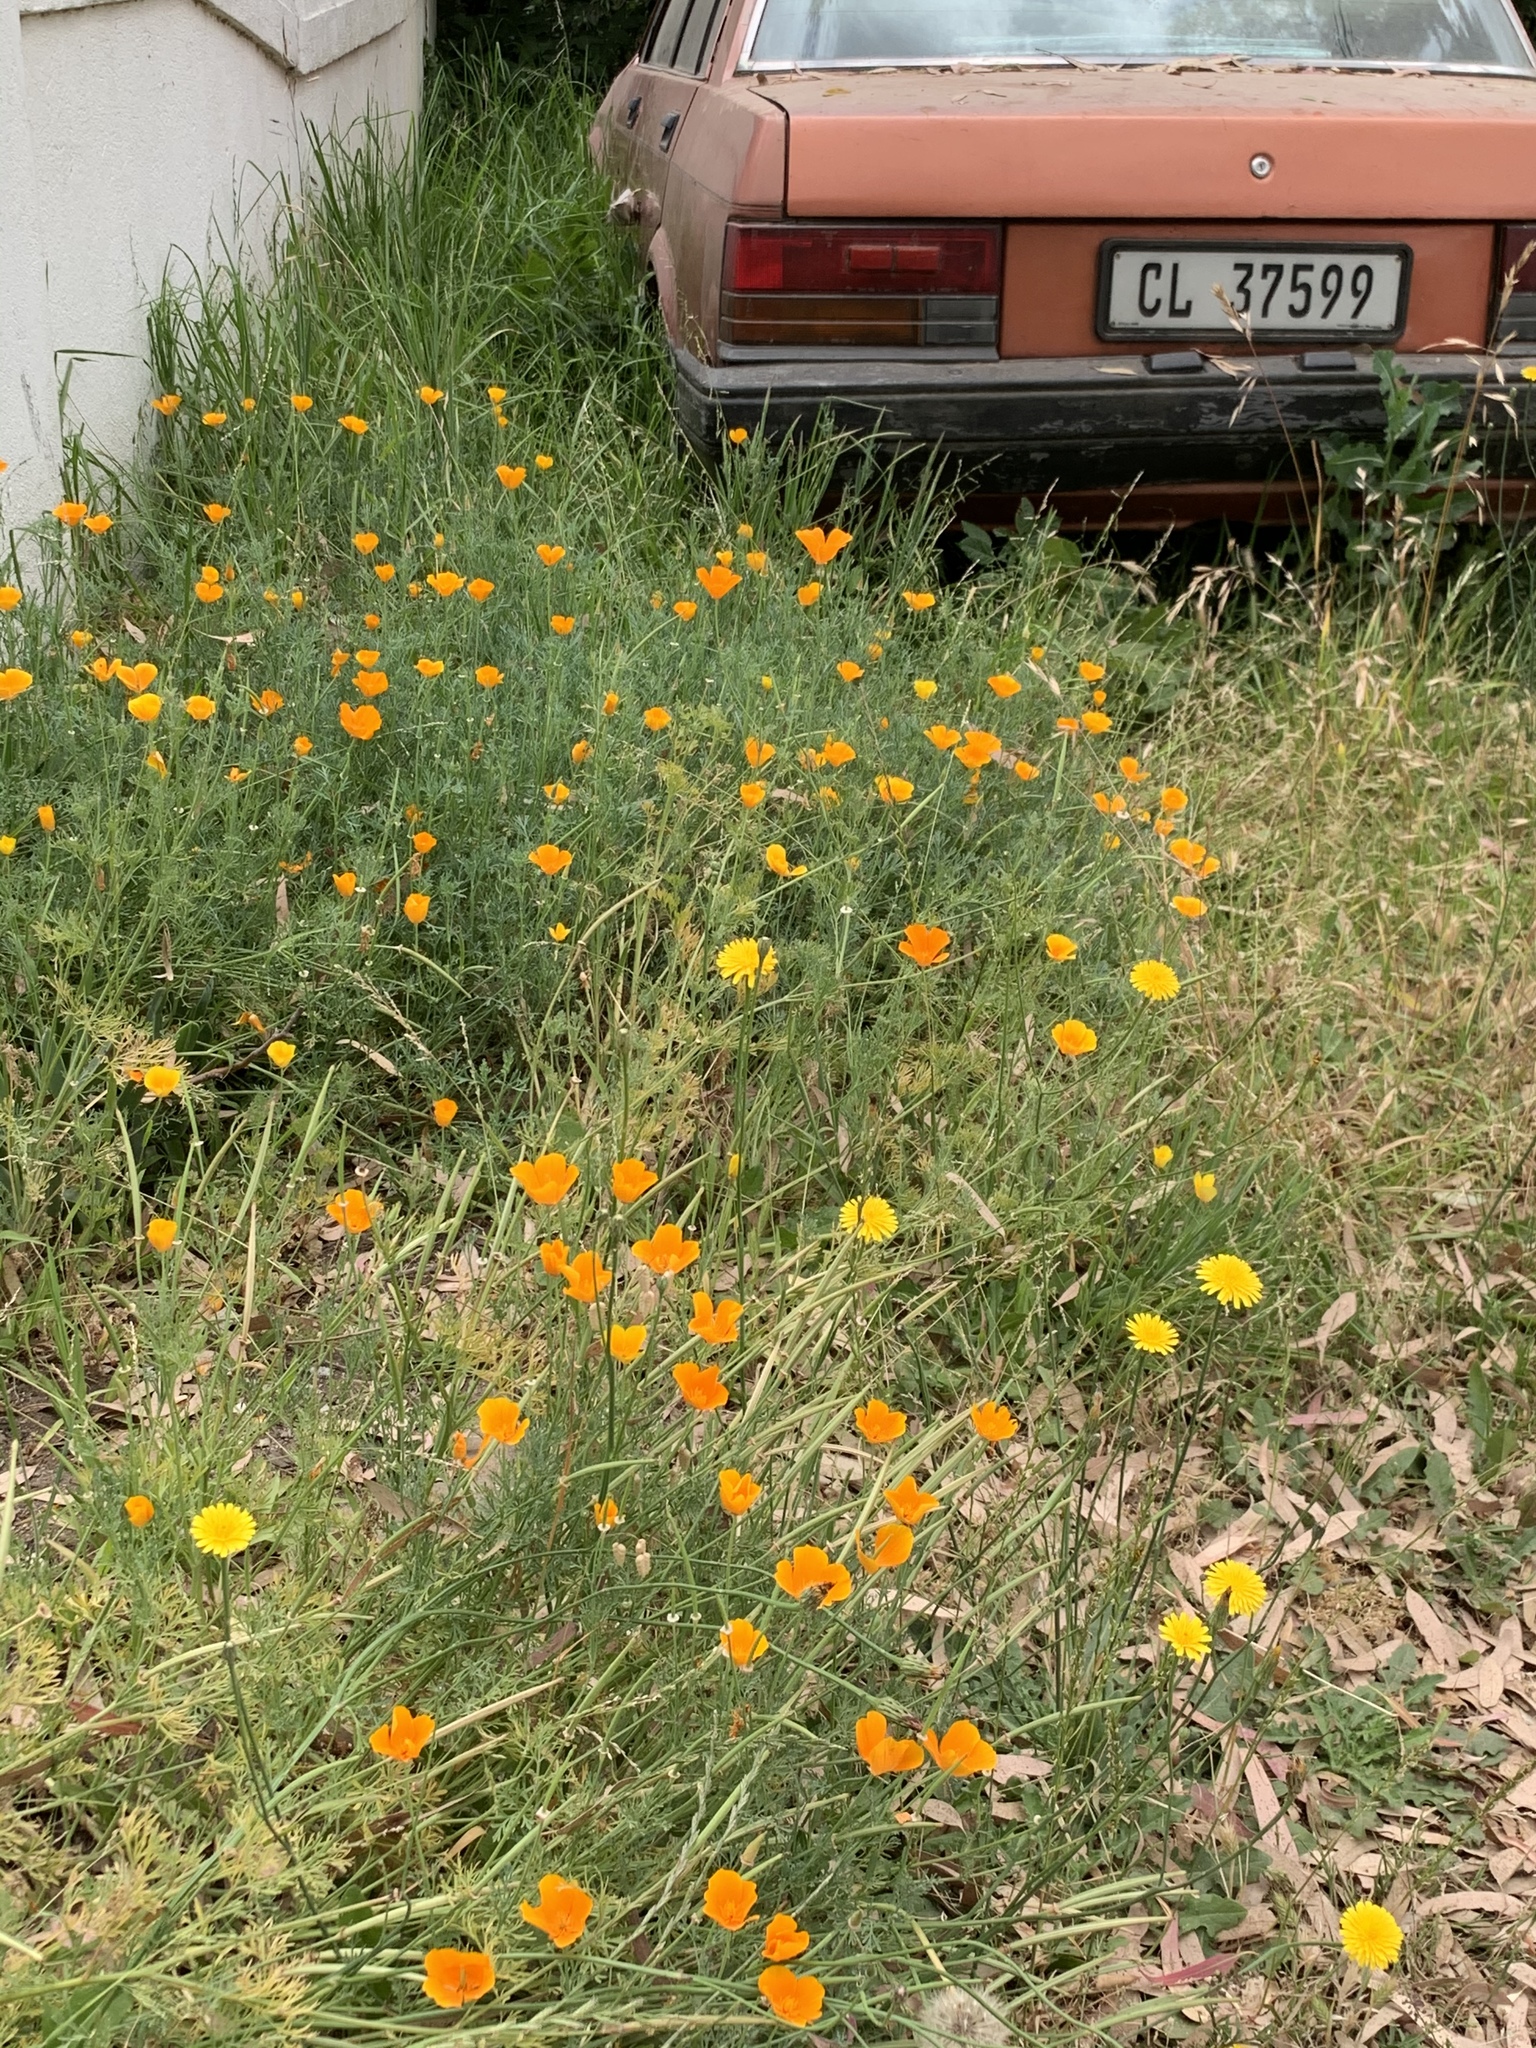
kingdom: Plantae
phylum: Tracheophyta
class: Magnoliopsida
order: Ranunculales
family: Papaveraceae
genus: Eschscholzia
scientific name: Eschscholzia californica
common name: California poppy
